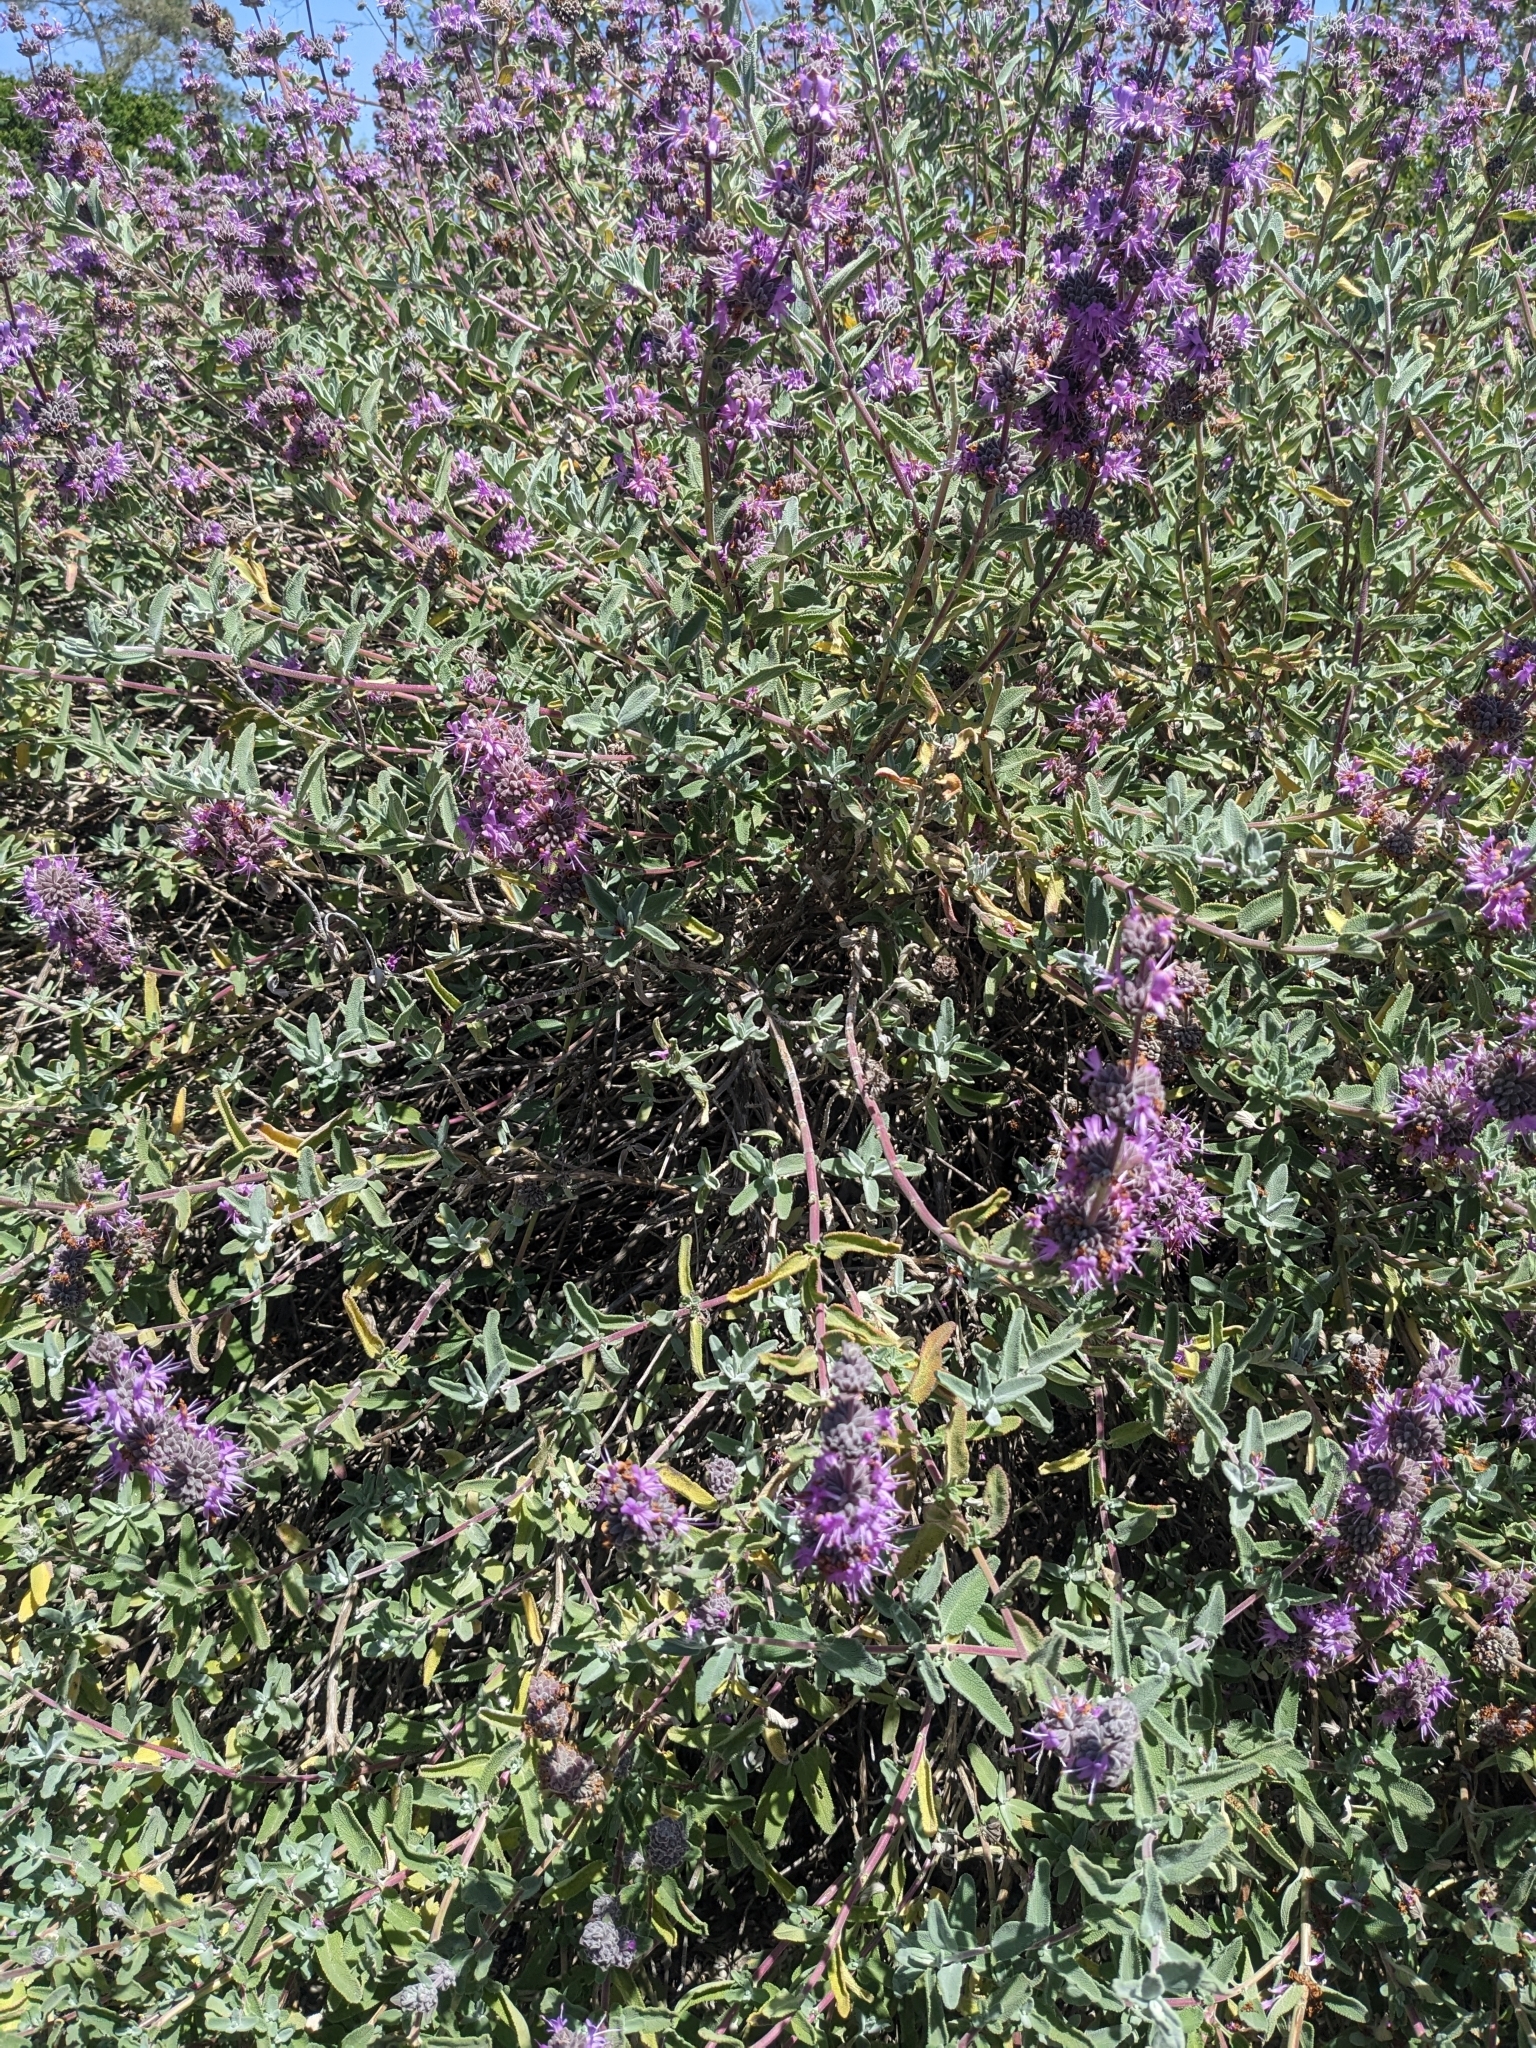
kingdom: Plantae
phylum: Tracheophyta
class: Magnoliopsida
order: Lamiales
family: Lamiaceae
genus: Salvia
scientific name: Salvia leucophylla
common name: Purple sage
